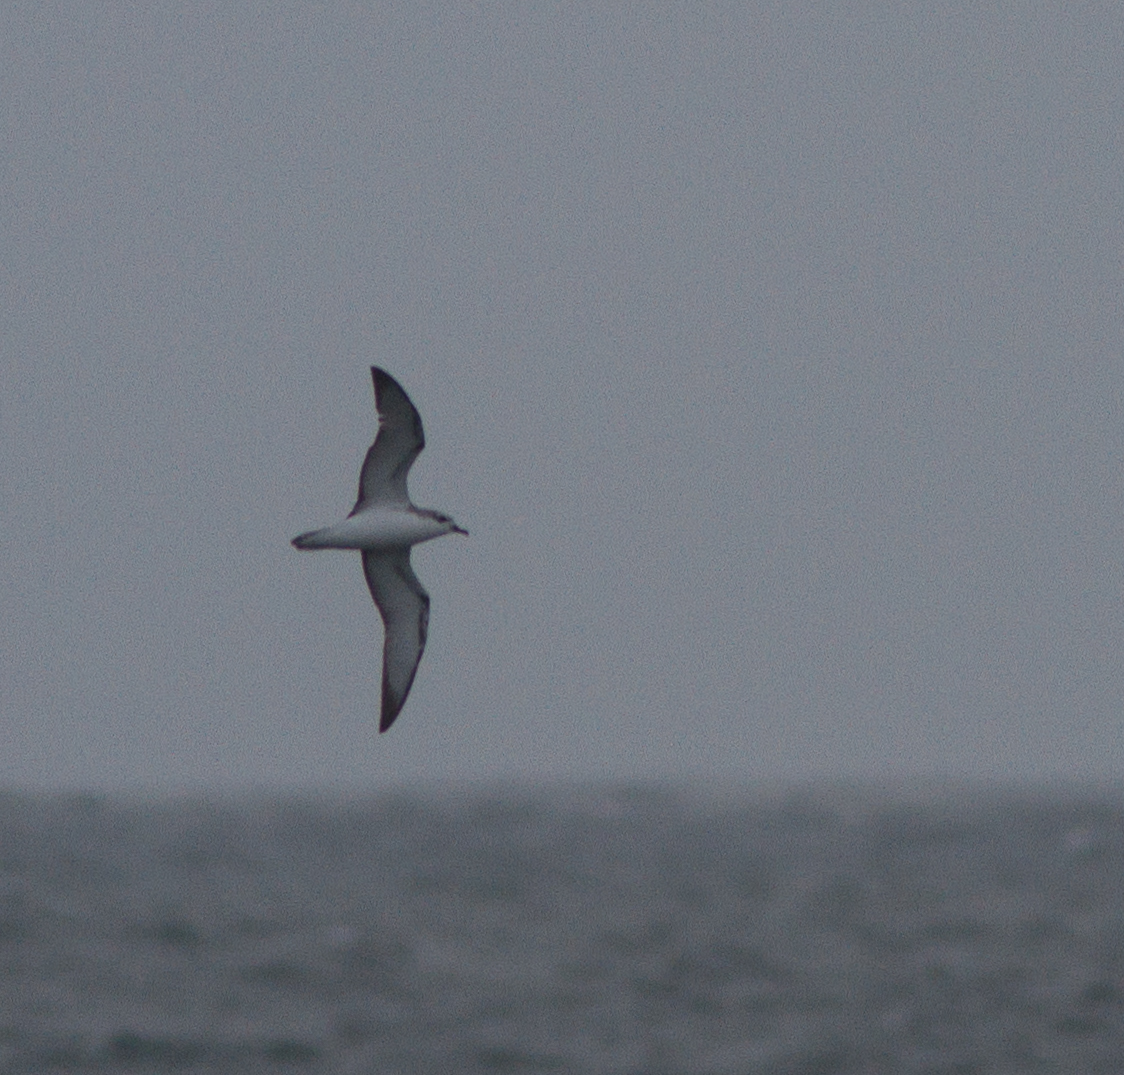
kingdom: Animalia
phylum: Chordata
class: Aves
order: Procellariiformes
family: Procellariidae
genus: Pterodroma
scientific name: Pterodroma cookii
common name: Cook's petrel
